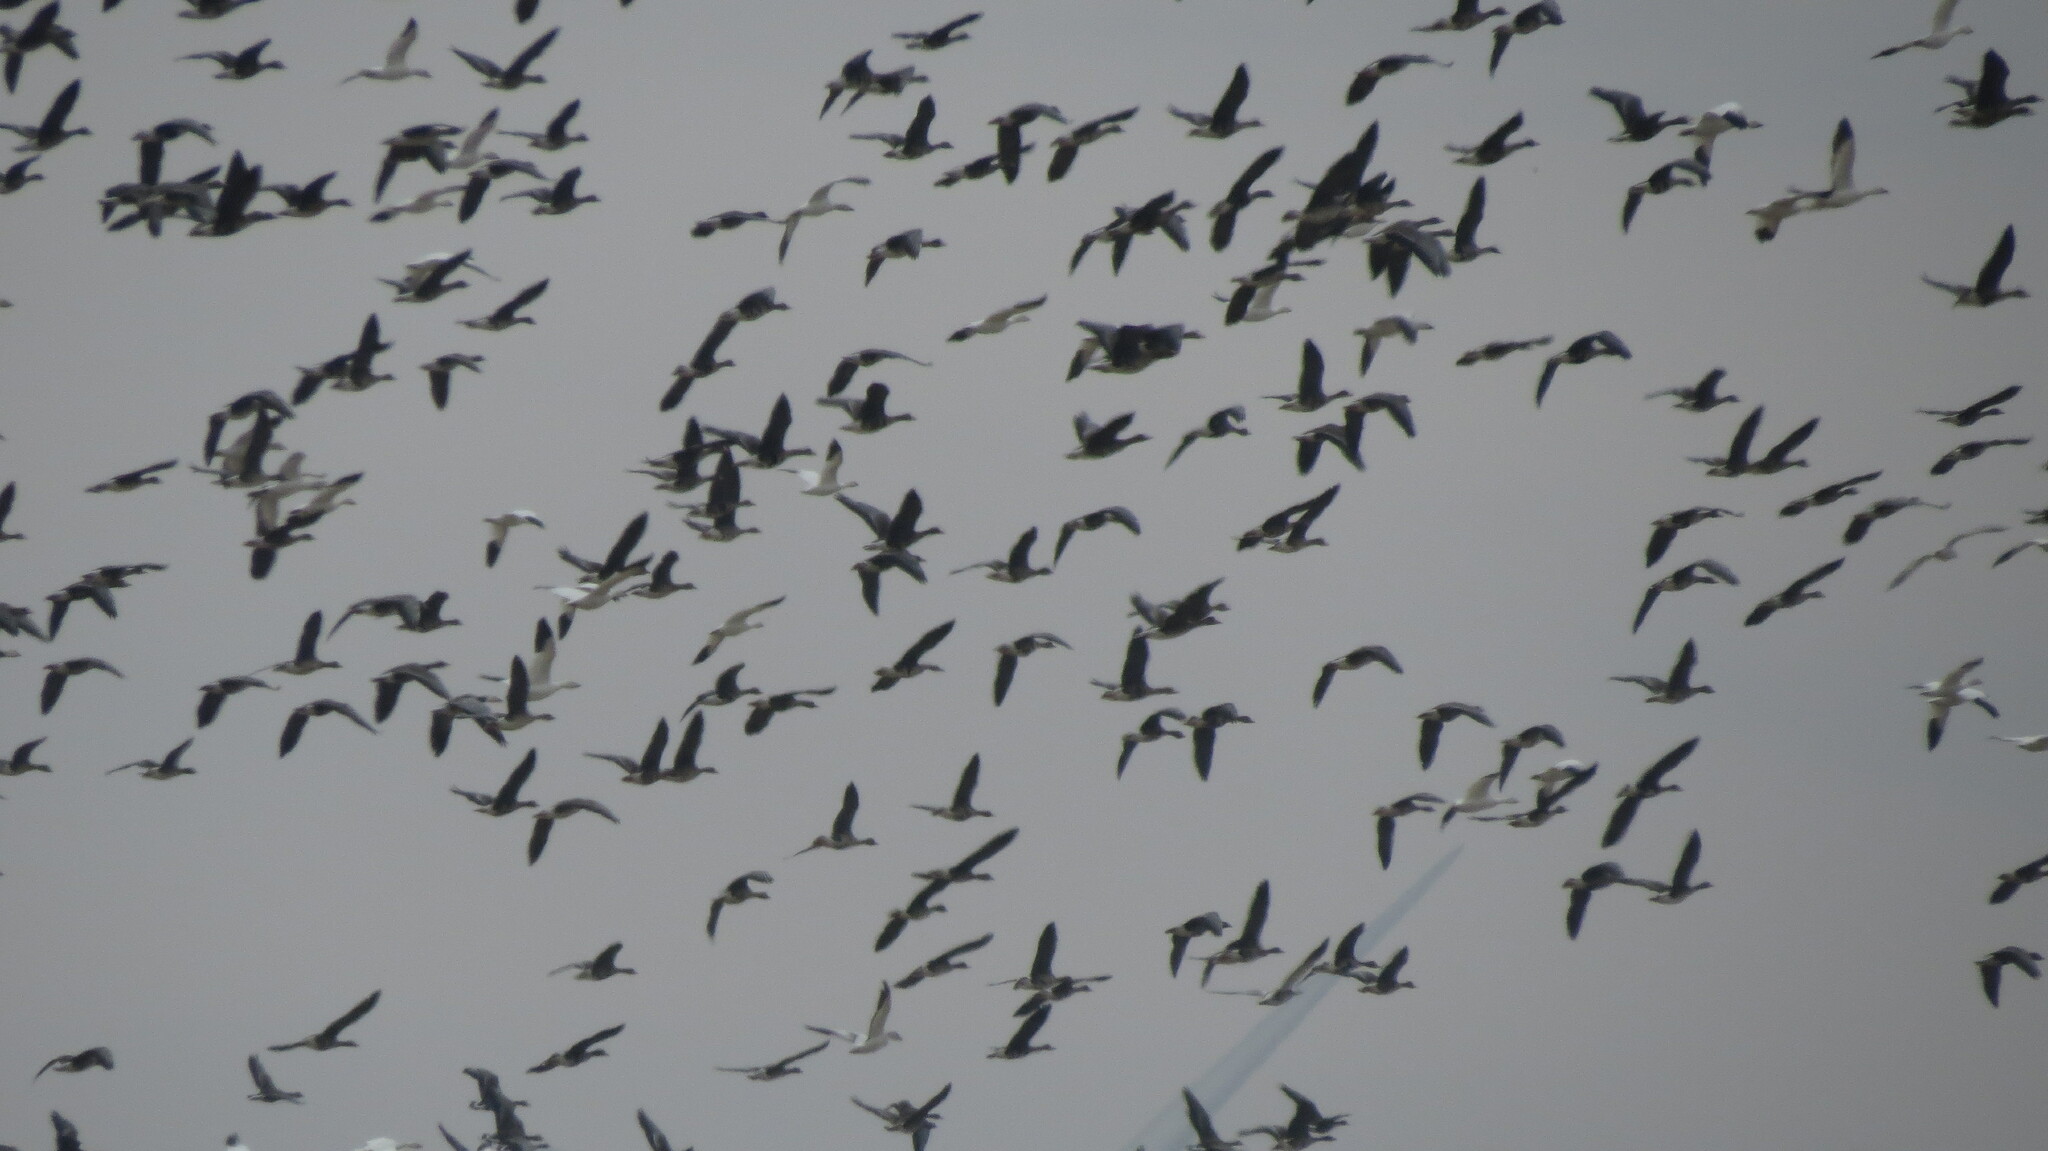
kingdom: Animalia
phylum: Chordata
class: Aves
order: Anseriformes
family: Anatidae
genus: Anser
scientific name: Anser albifrons
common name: Greater white-fronted goose
